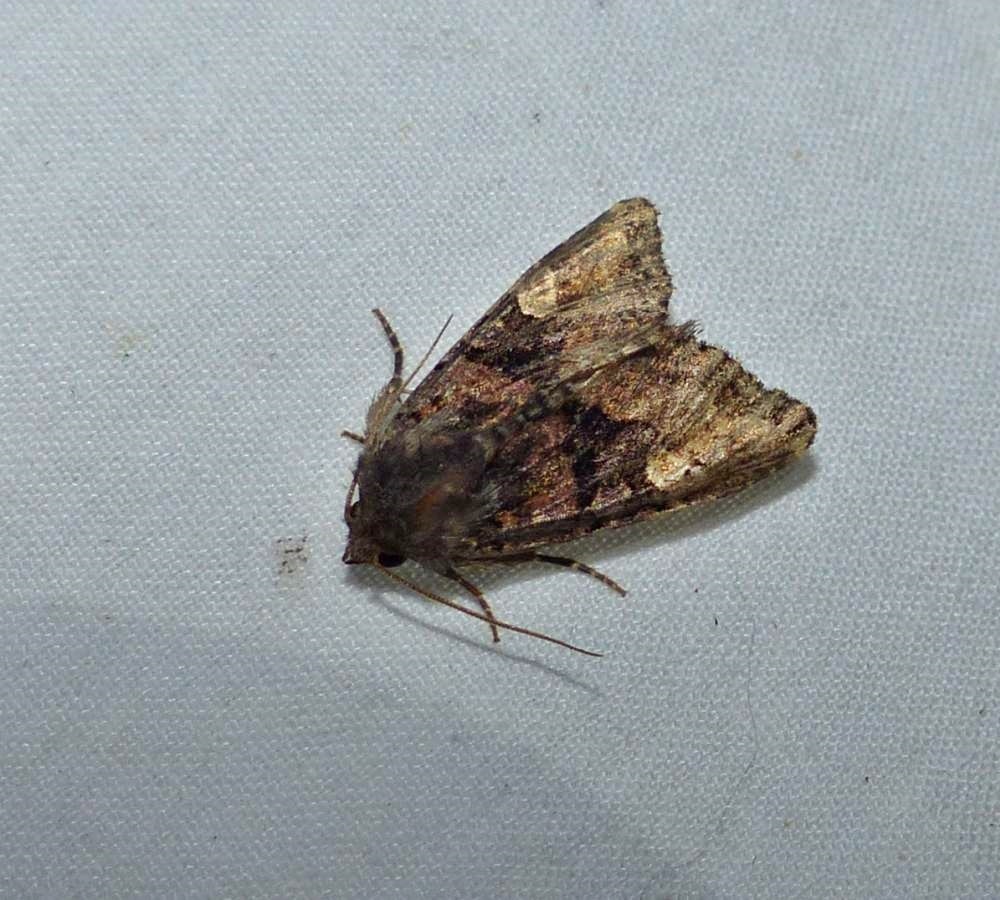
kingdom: Animalia
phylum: Arthropoda
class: Insecta
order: Lepidoptera
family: Noctuidae
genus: Euplexia
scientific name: Euplexia benesimilis
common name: American angle shades
